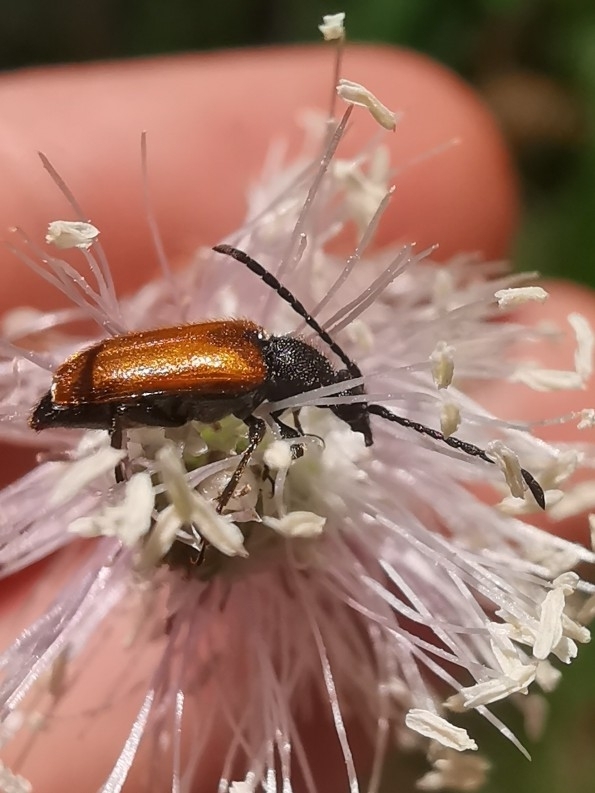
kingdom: Animalia
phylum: Arthropoda
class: Insecta
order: Coleoptera
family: Cerambycidae
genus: Pseudovadonia
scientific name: Pseudovadonia livida
